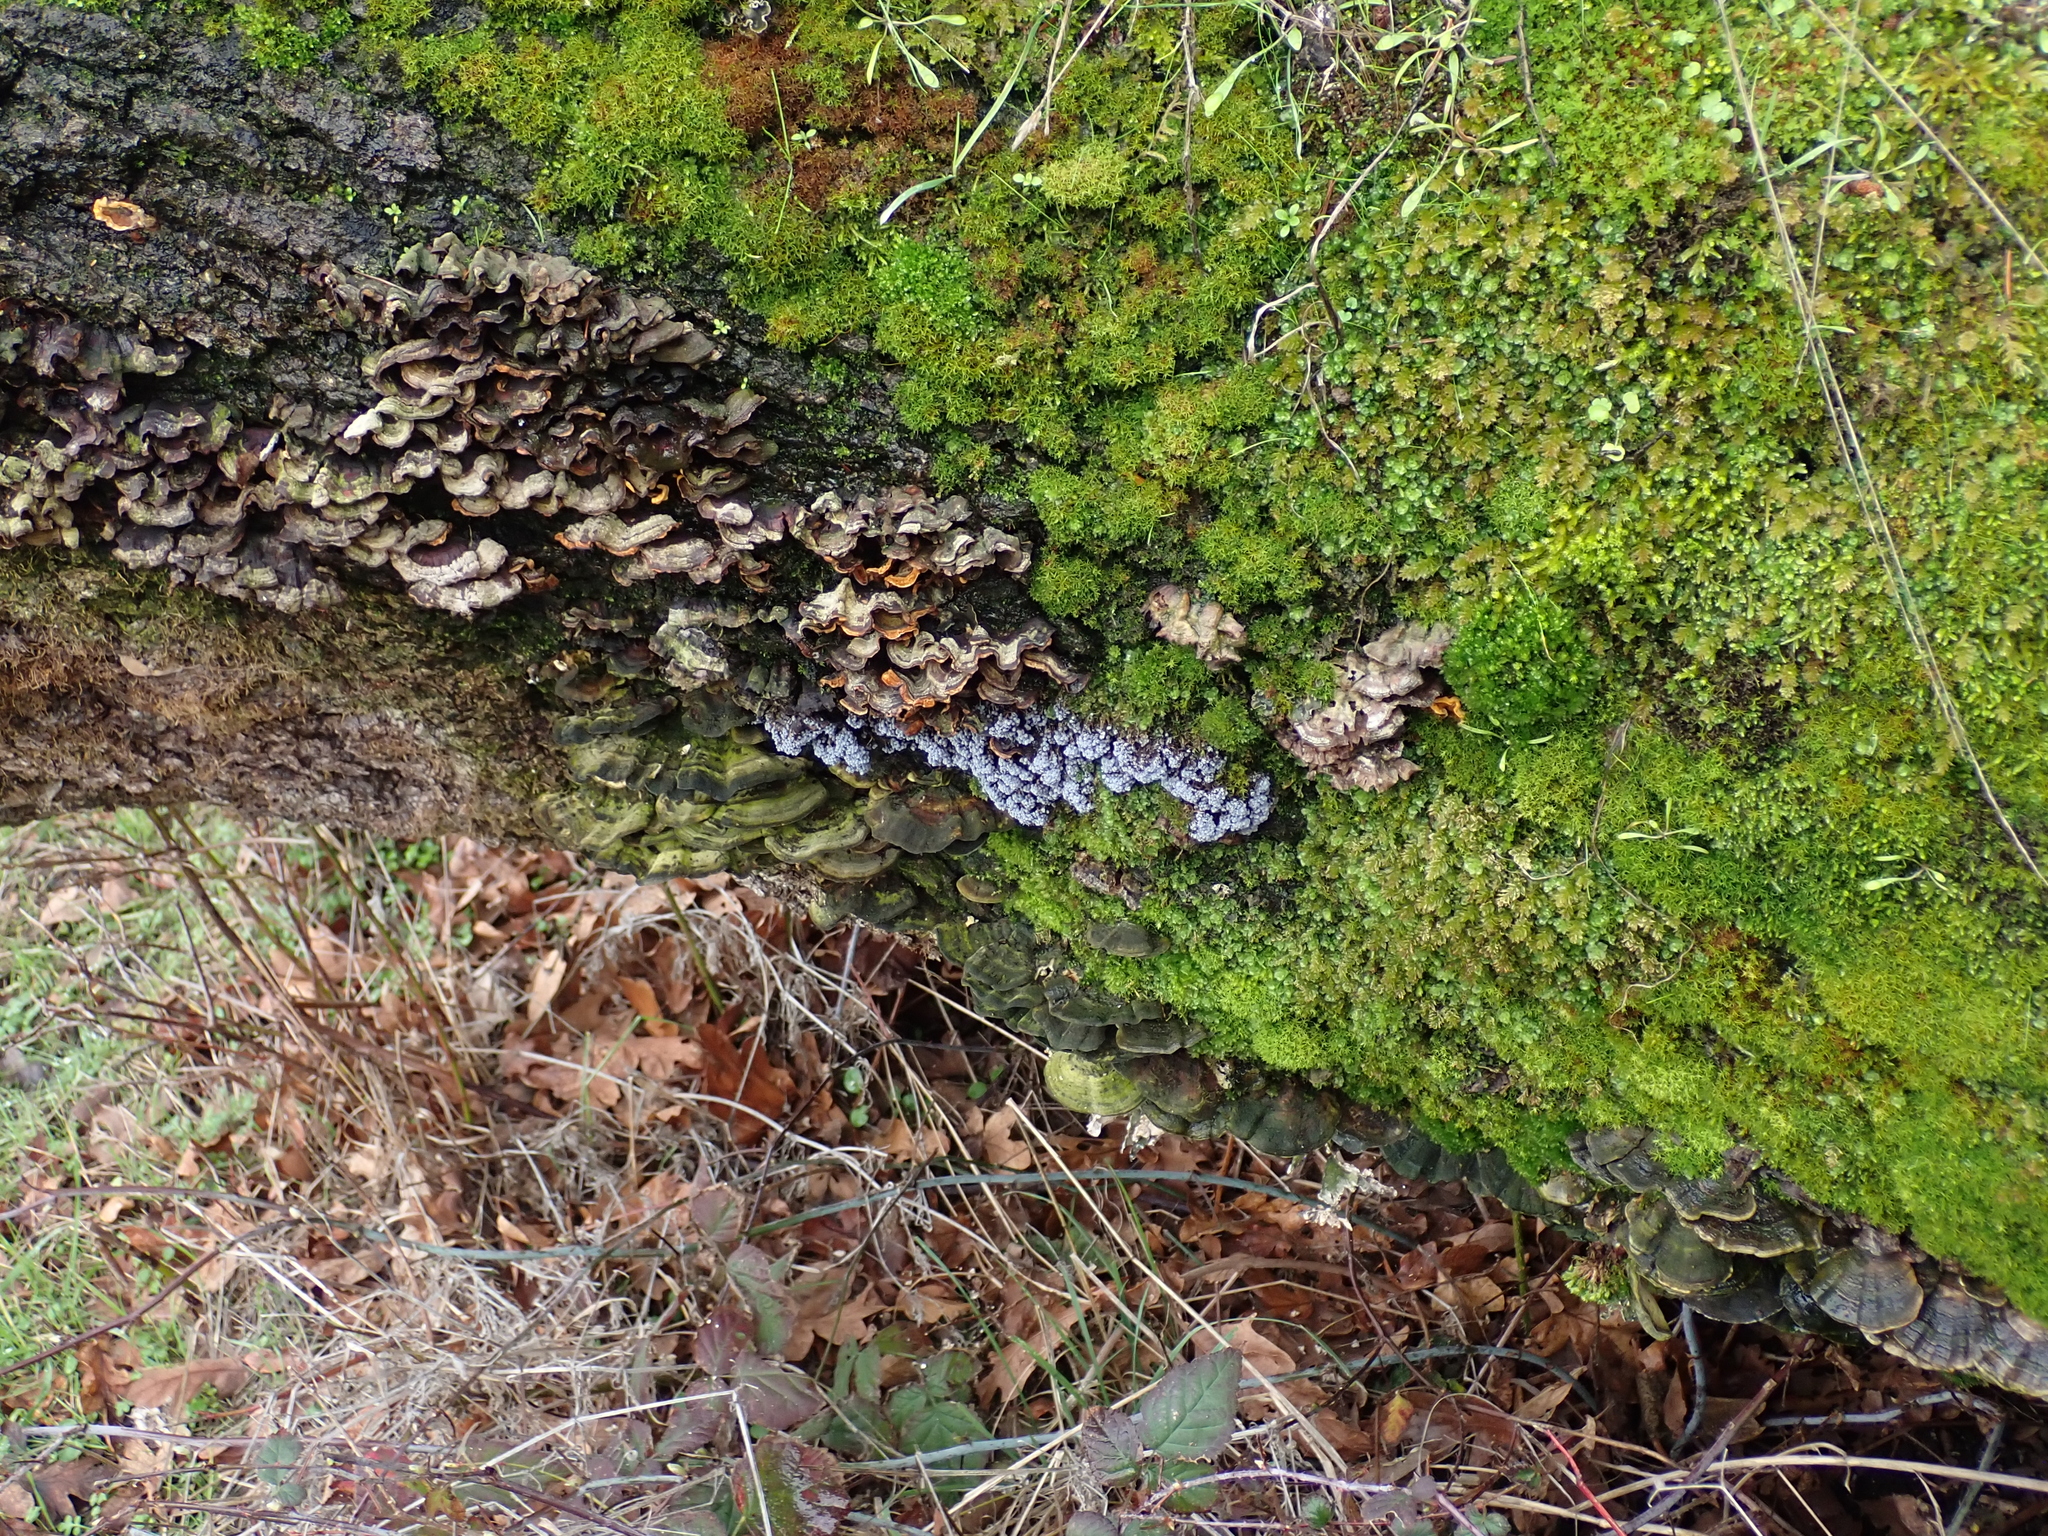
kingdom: Protozoa
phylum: Mycetozoa
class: Myxomycetes
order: Physarales
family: Physaraceae
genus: Badhamia
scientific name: Badhamia utricularis
